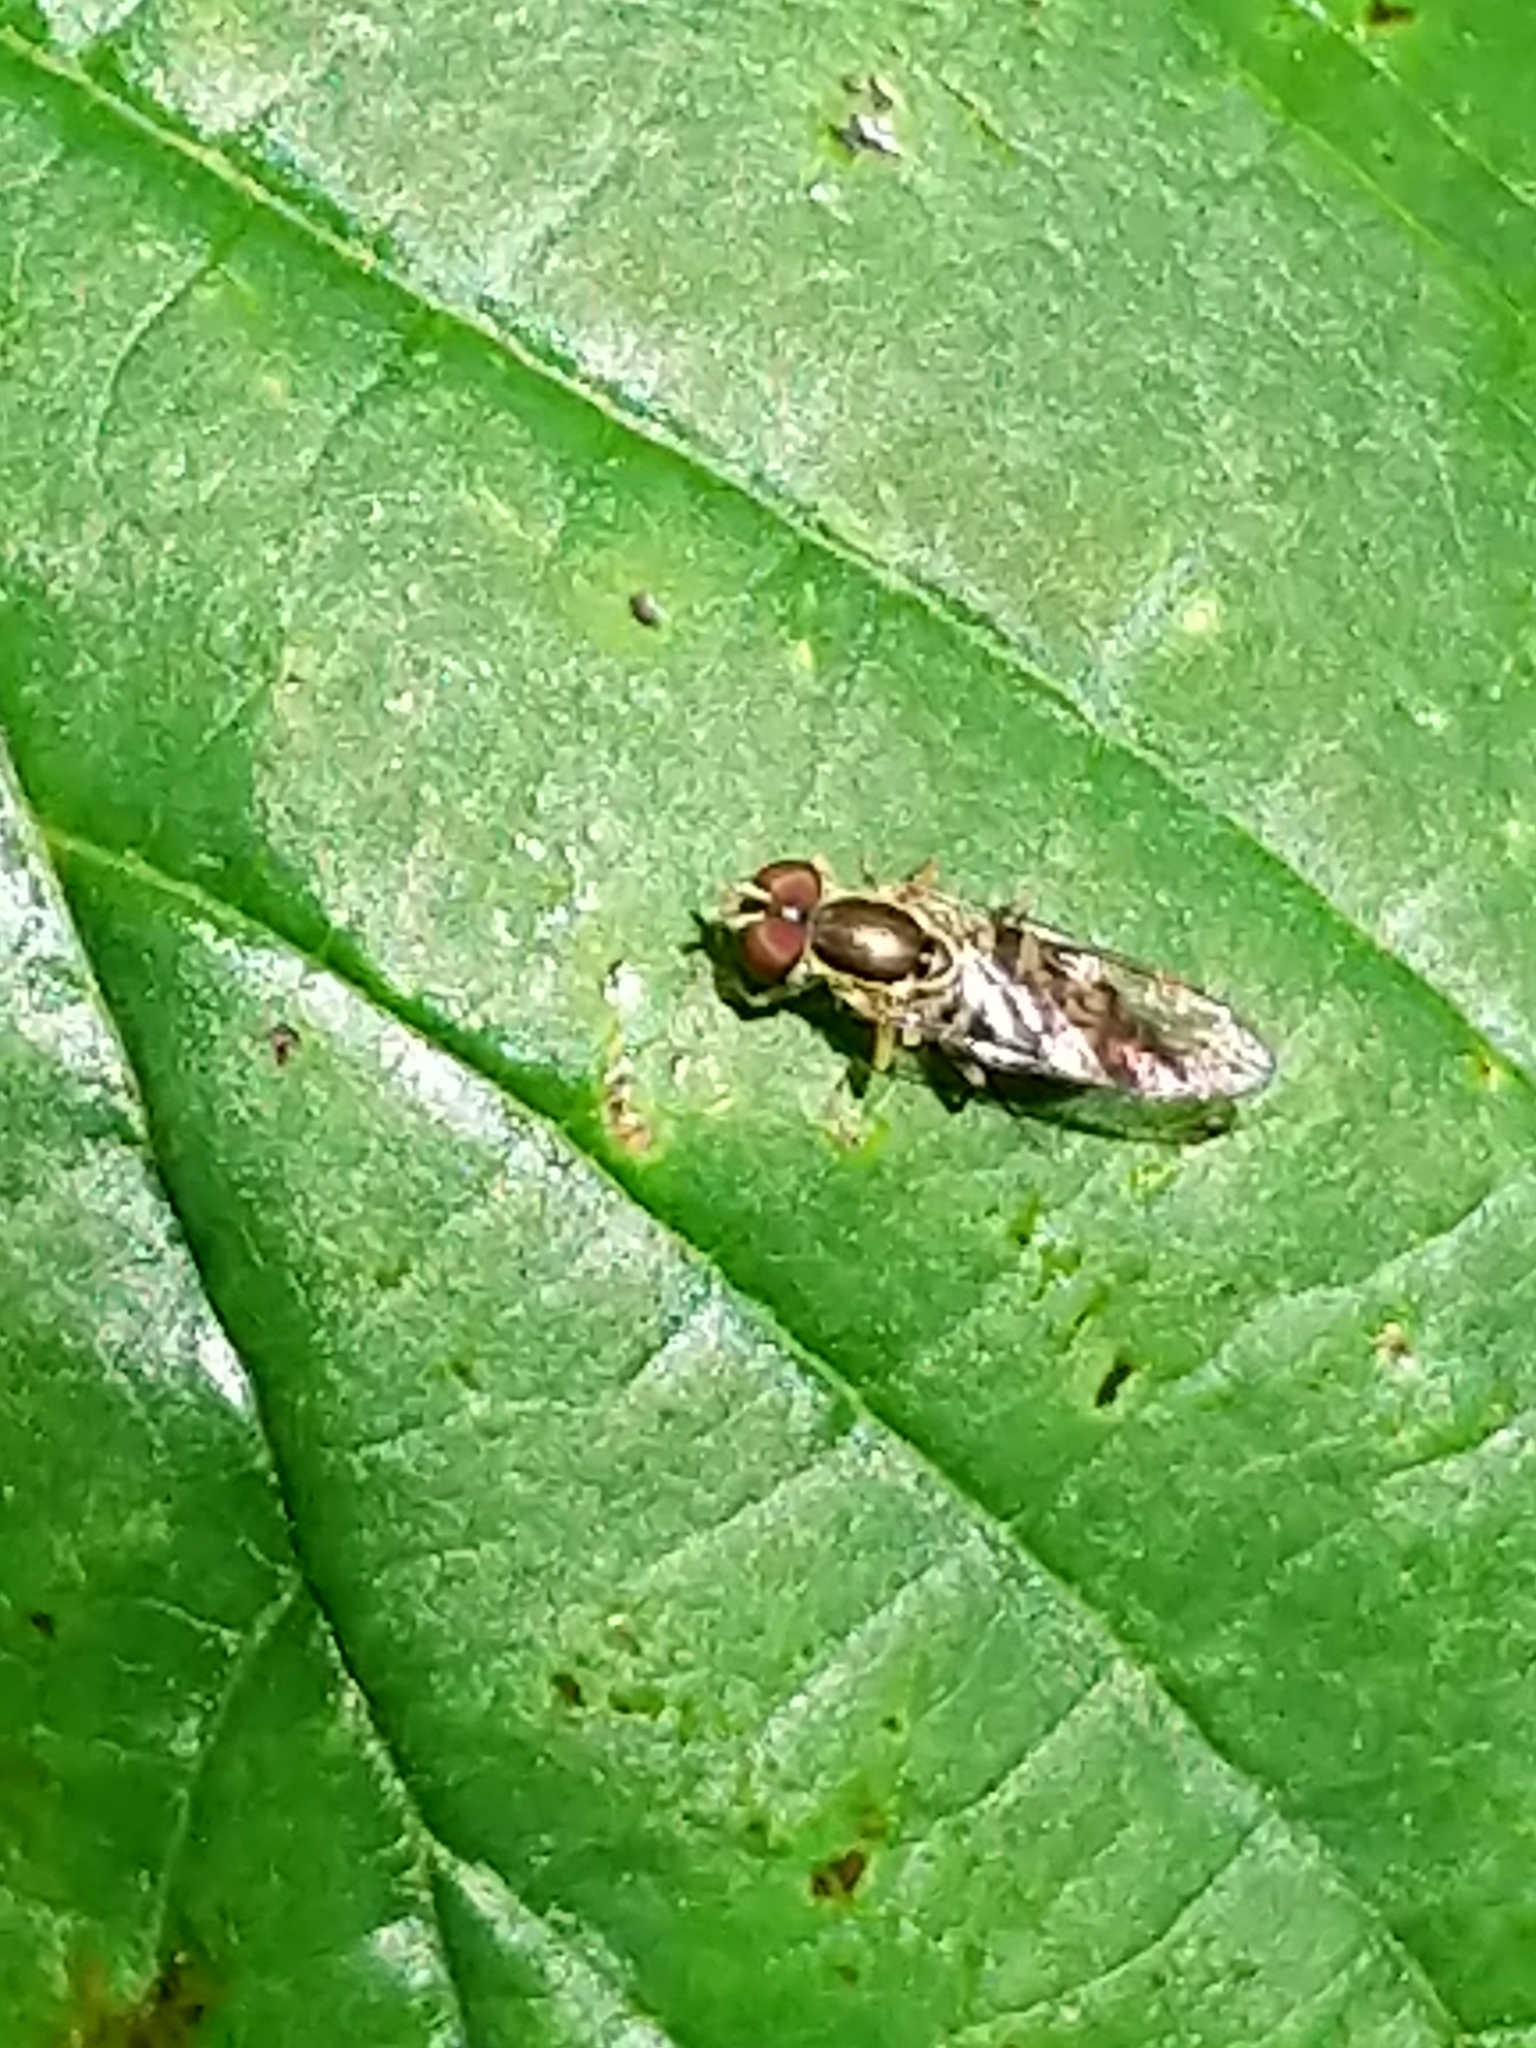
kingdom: Animalia
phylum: Arthropoda
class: Insecta
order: Diptera
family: Syrphidae
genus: Toxomerus
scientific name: Toxomerus geminatus
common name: Eastern calligrapher
